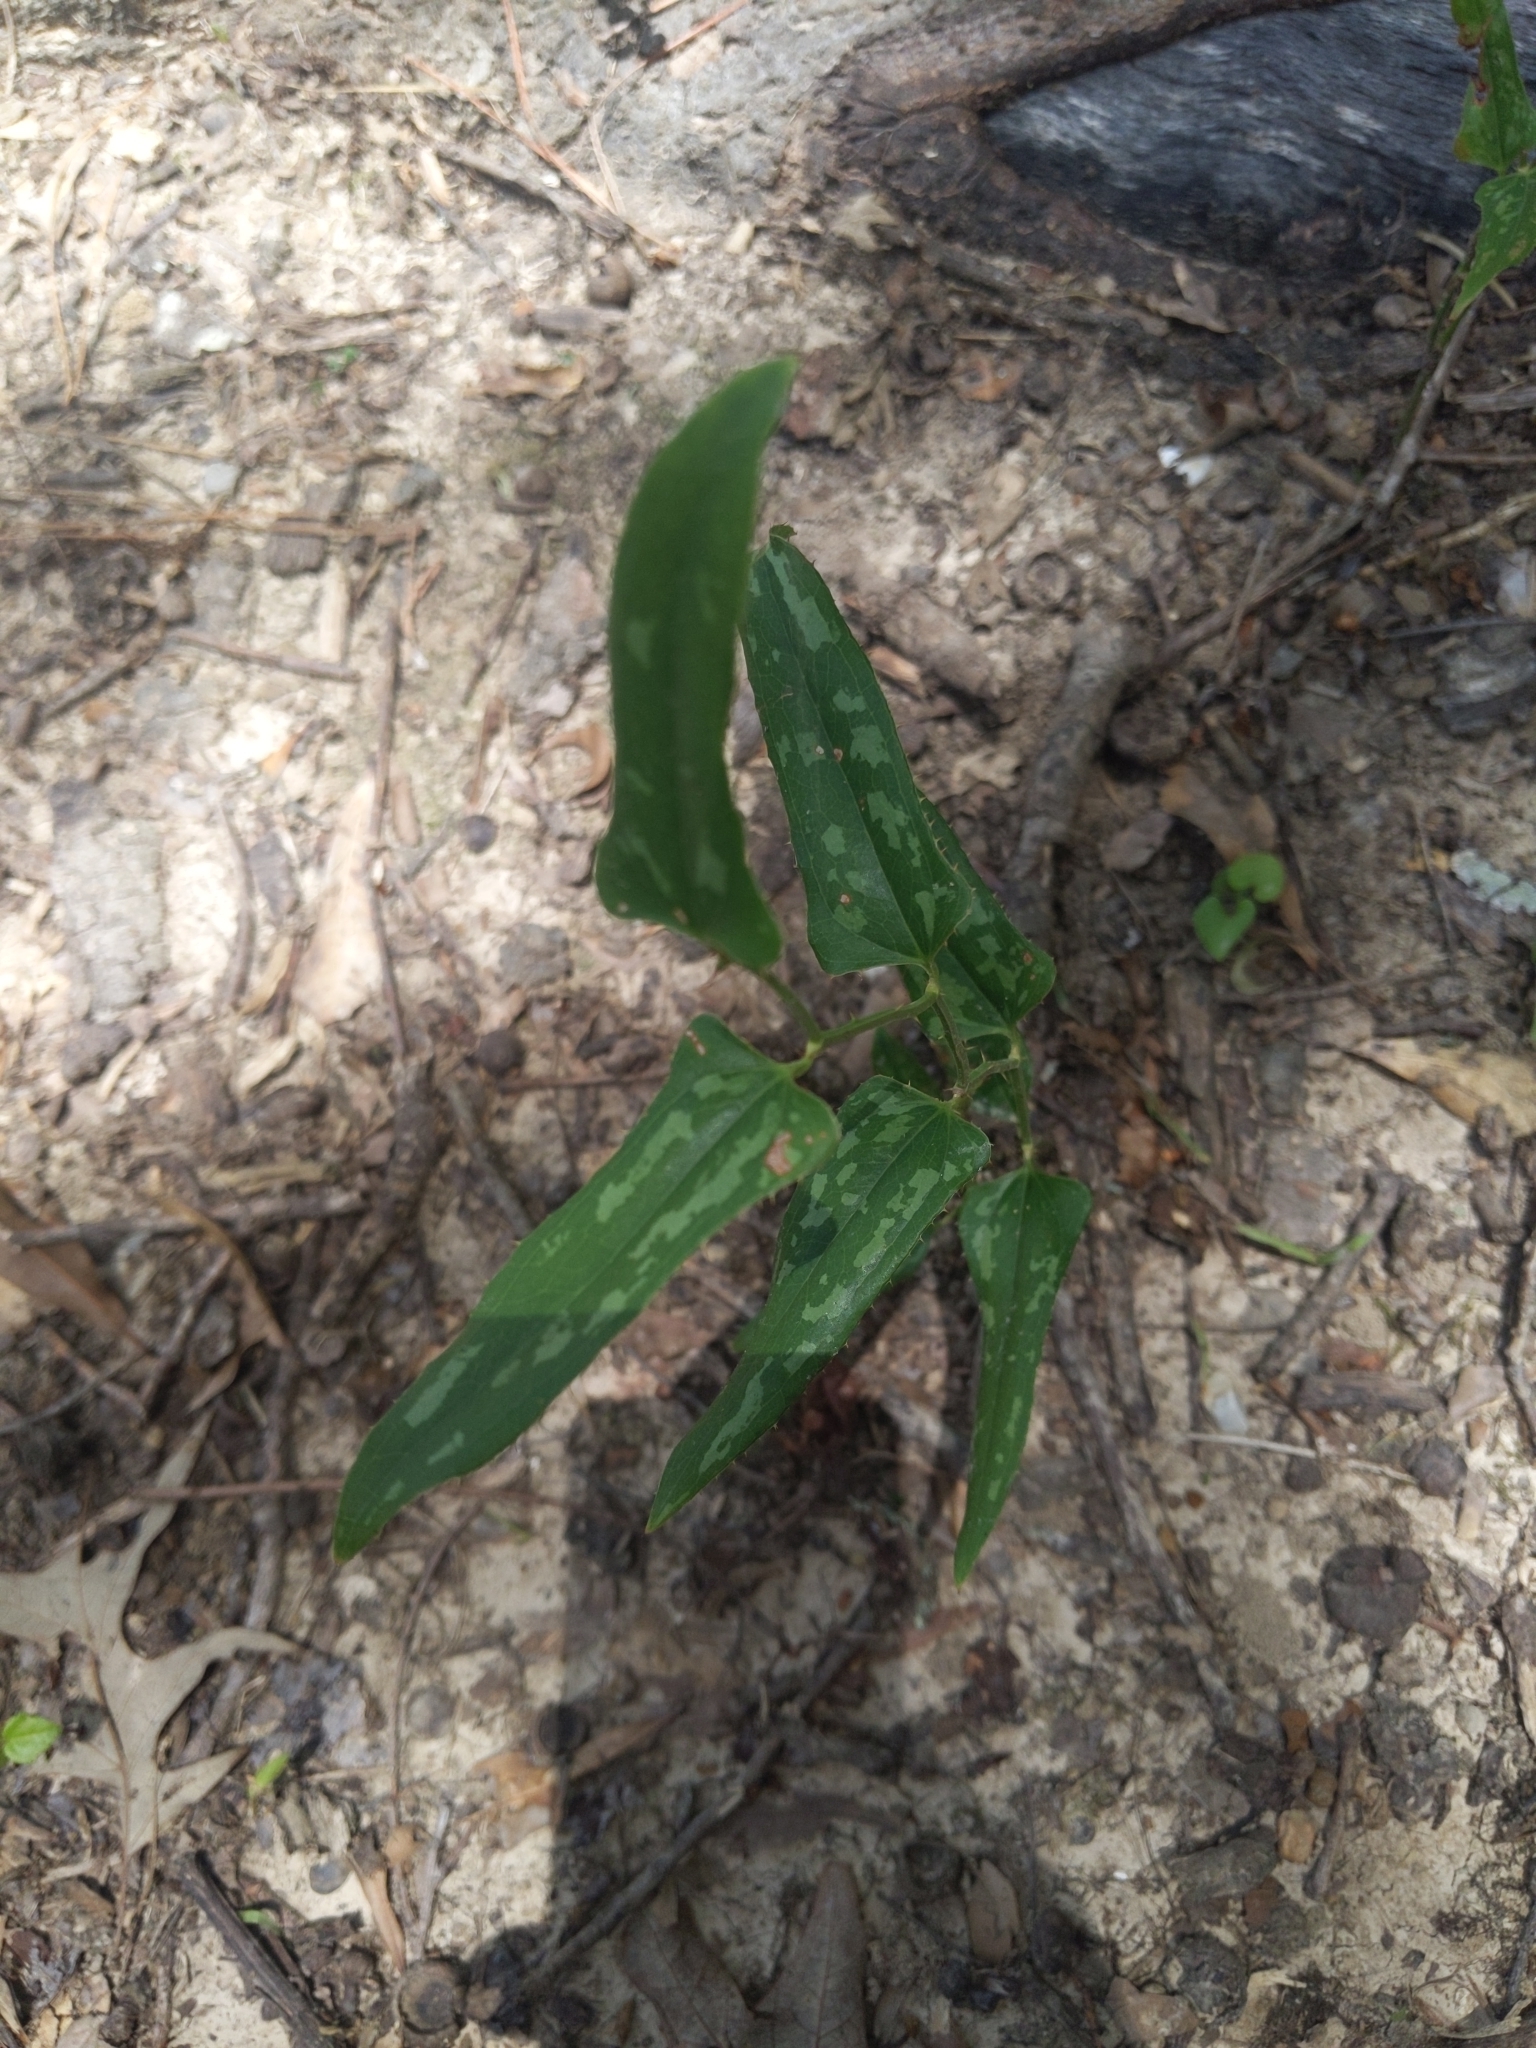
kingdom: Plantae
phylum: Tracheophyta
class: Liliopsida
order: Liliales
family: Smilacaceae
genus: Smilax
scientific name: Smilax bona-nox
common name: Catbrier
